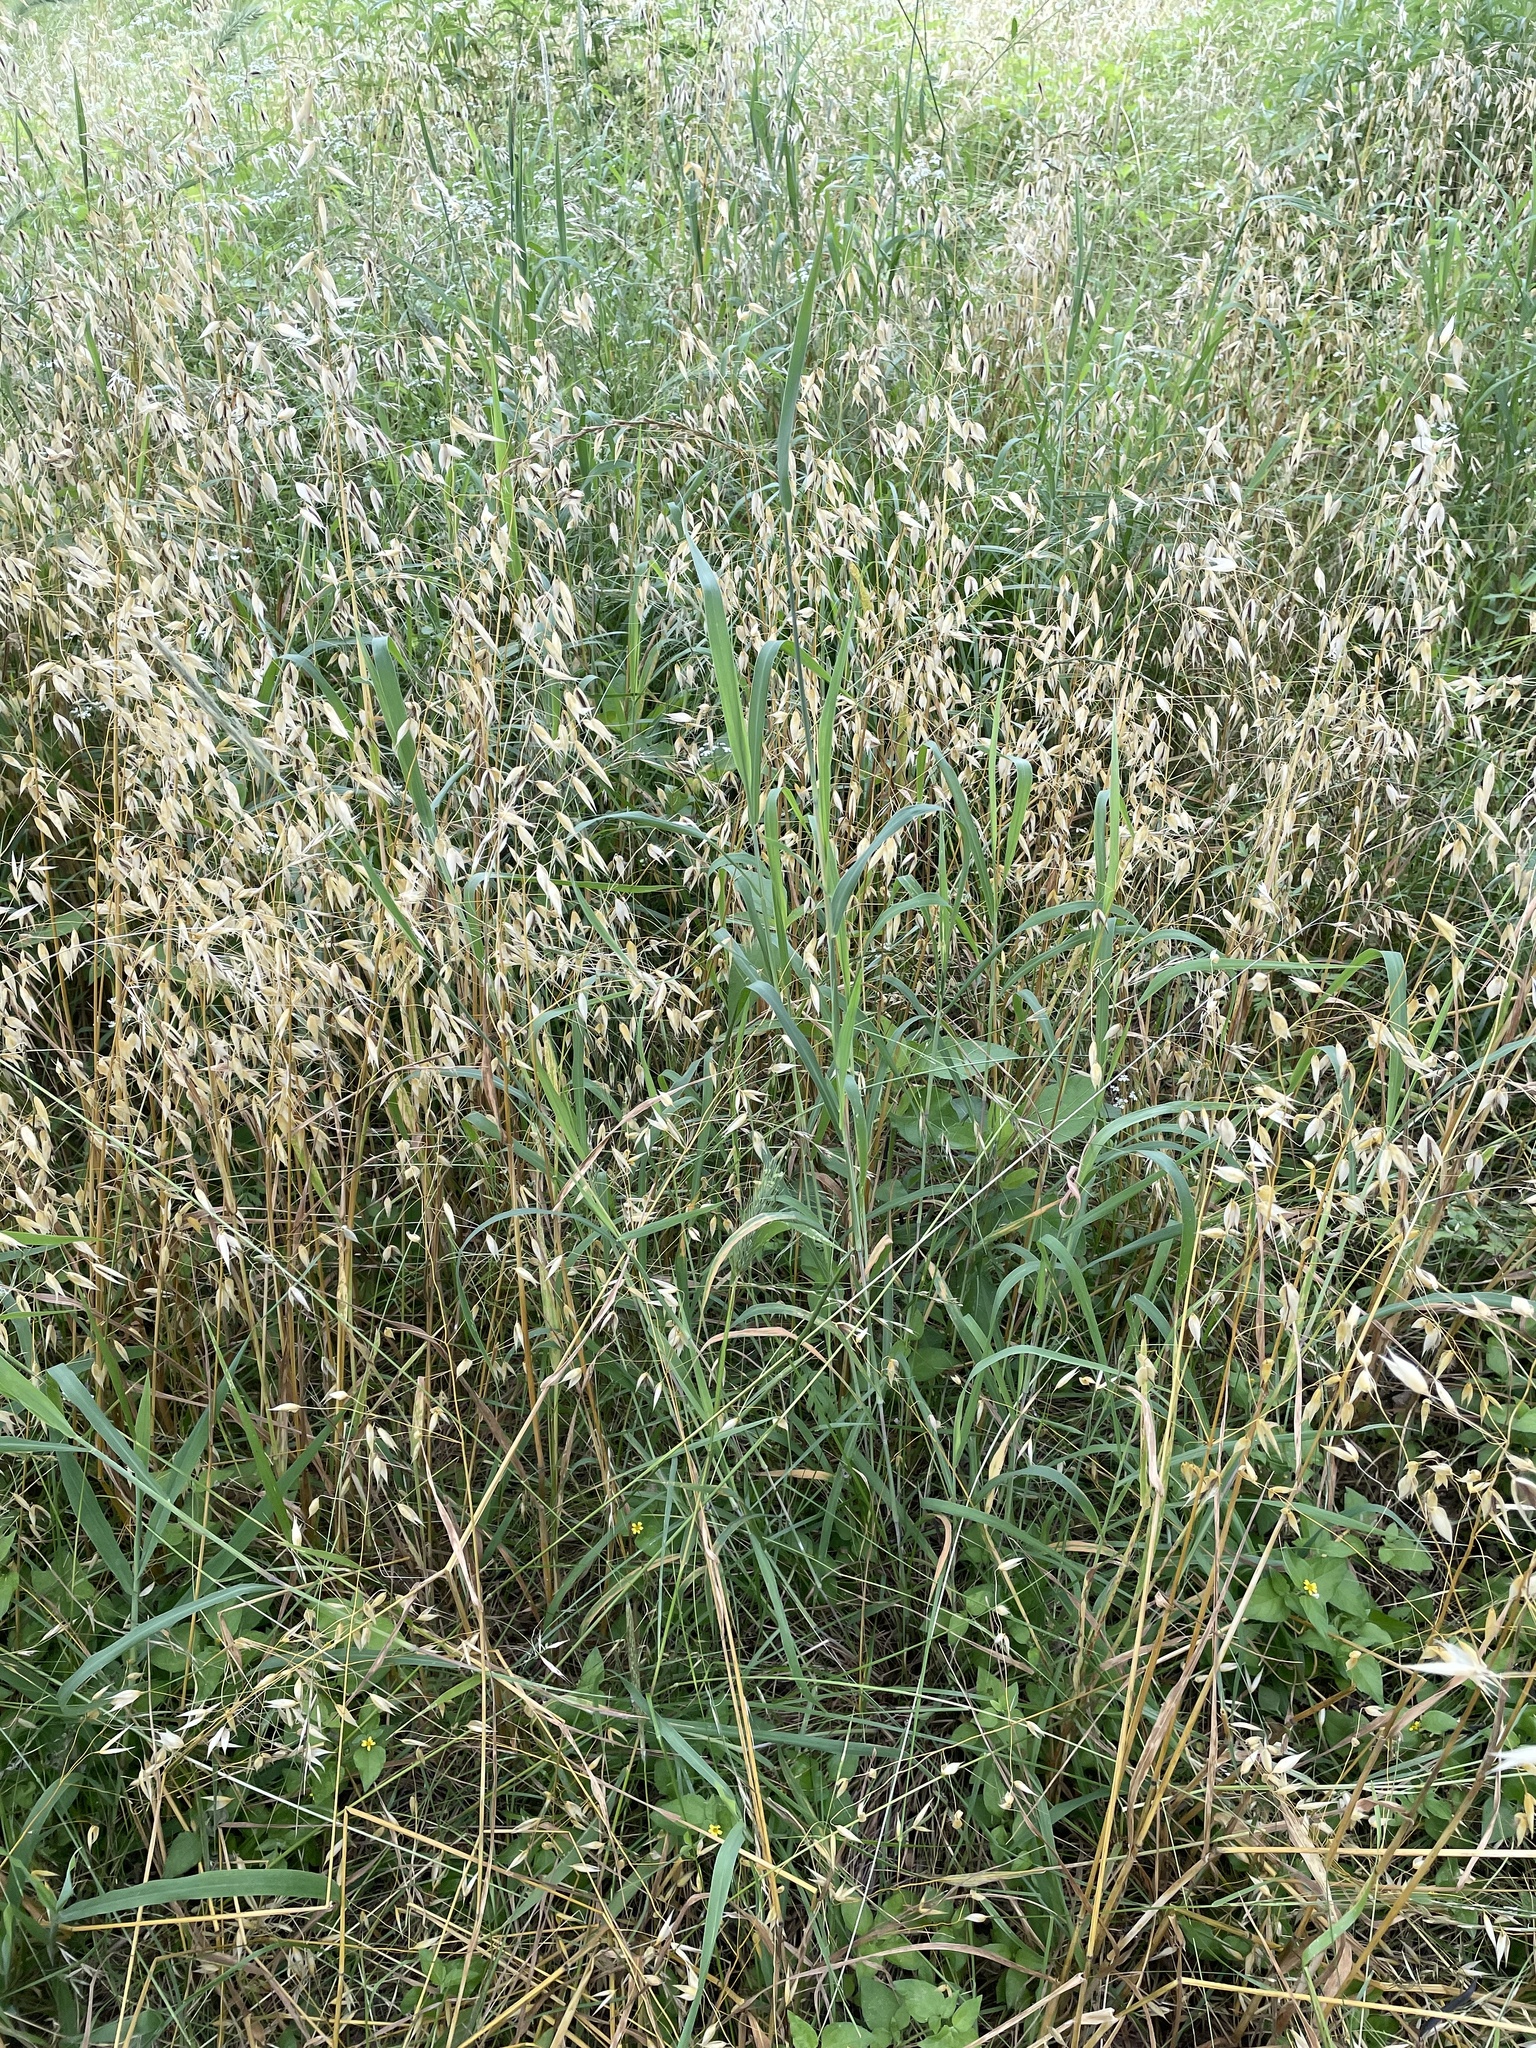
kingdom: Plantae
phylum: Tracheophyta
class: Liliopsida
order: Poales
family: Poaceae
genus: Bothriochloa
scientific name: Bothriochloa torreyana
